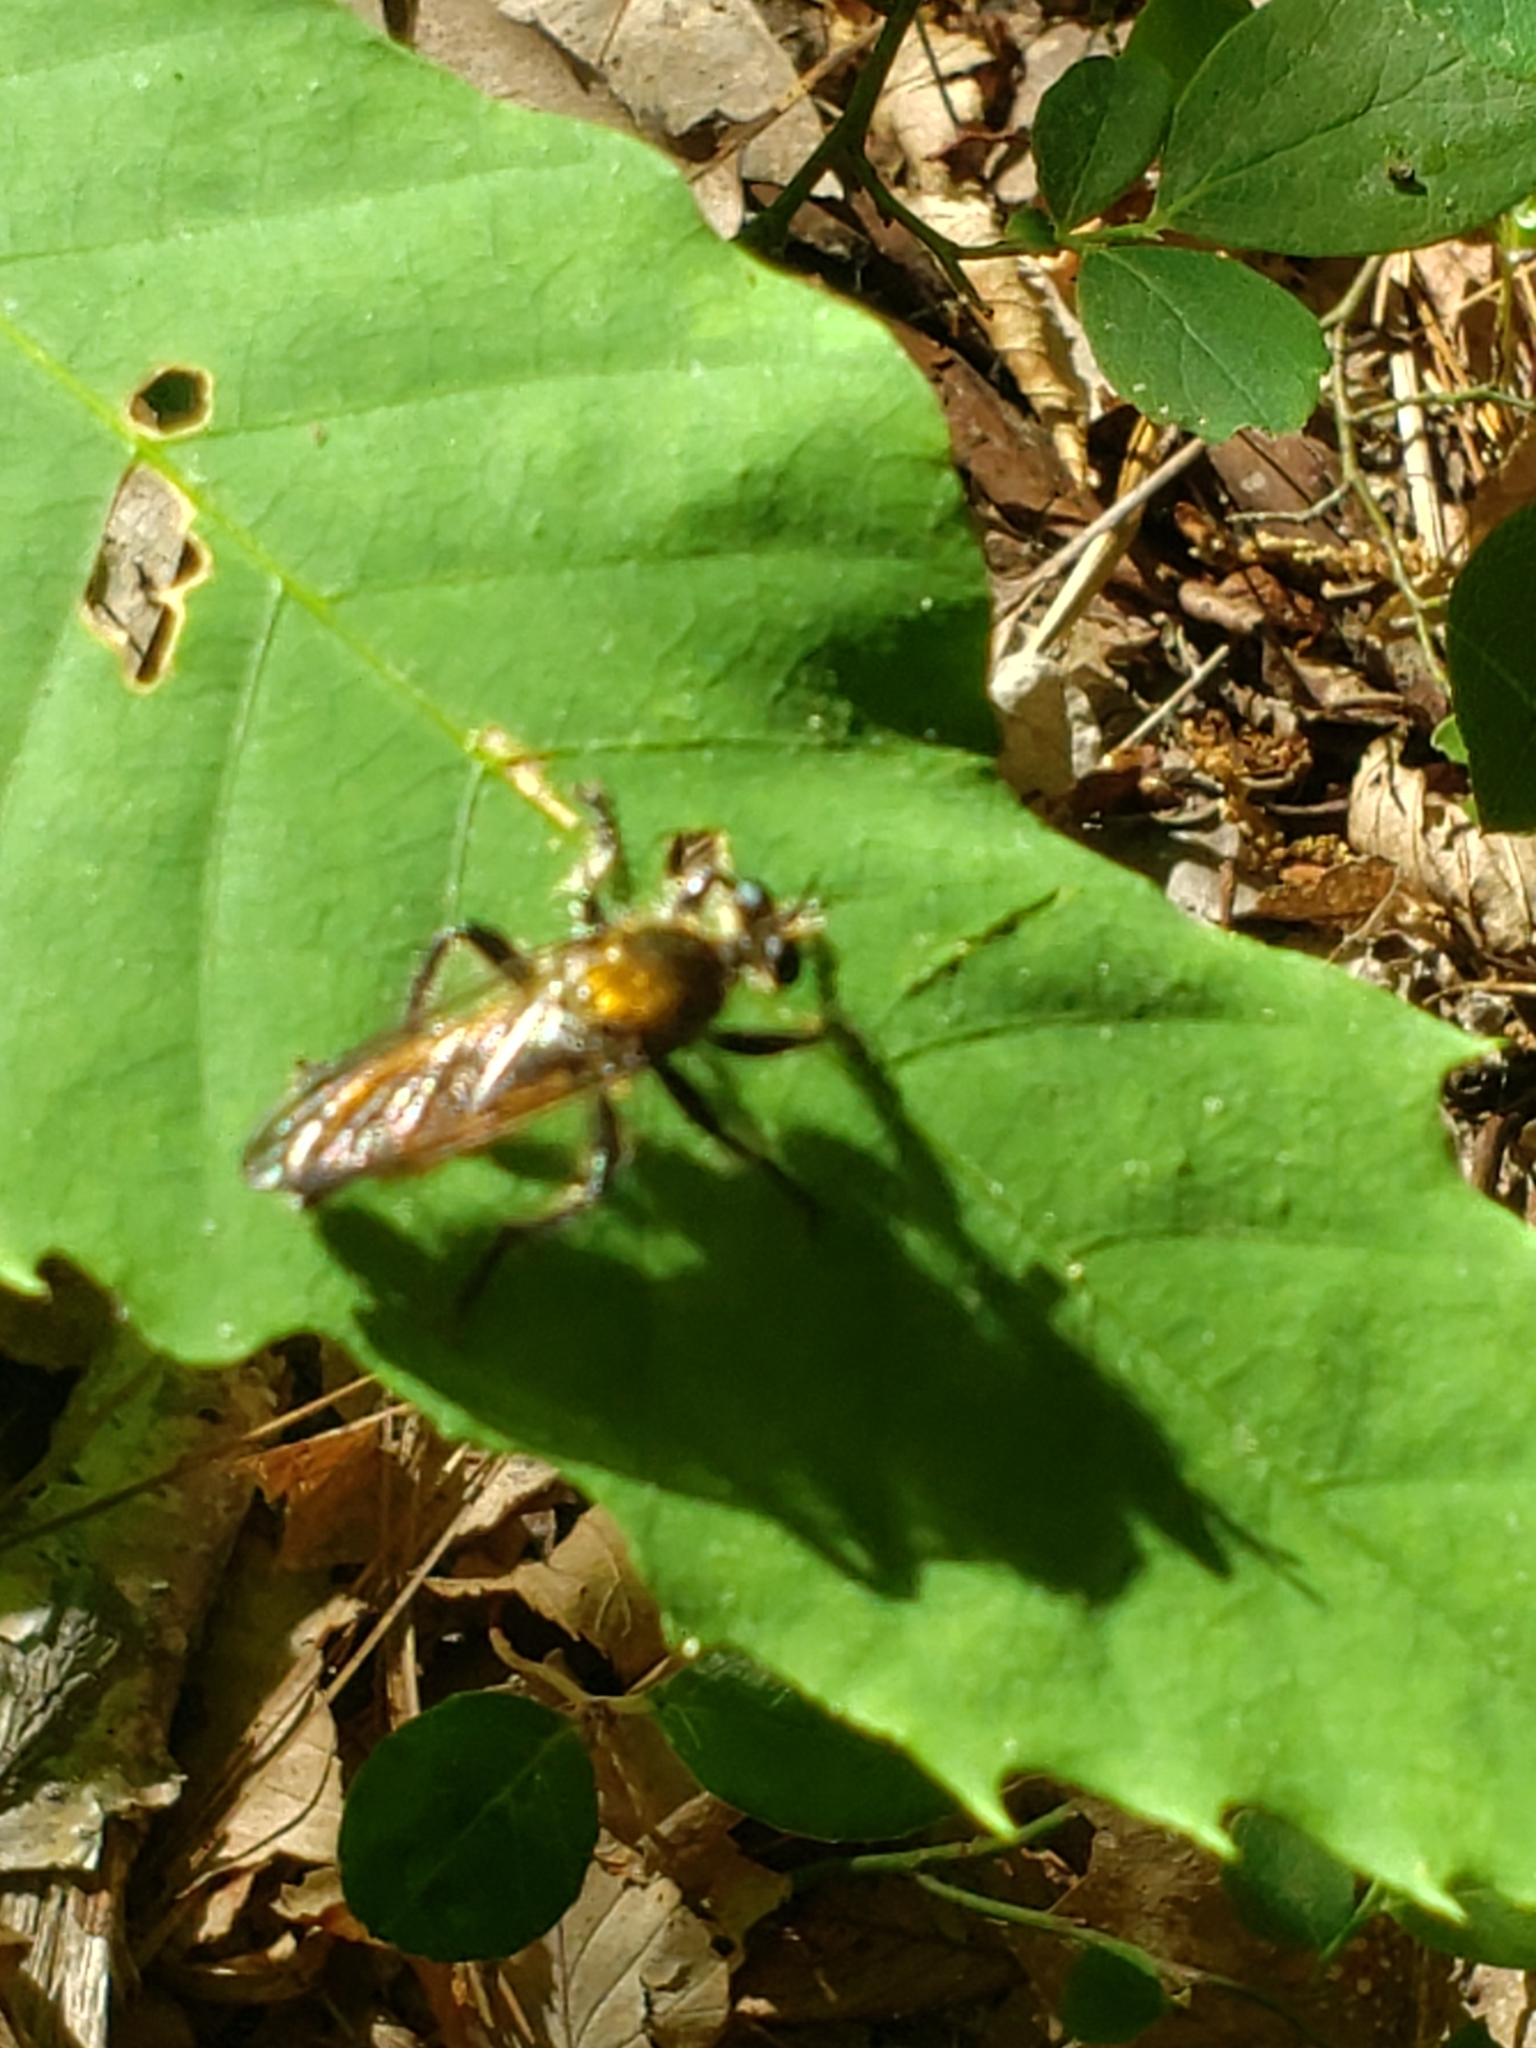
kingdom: Animalia
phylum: Arthropoda
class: Insecta
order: Diptera
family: Asilidae
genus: Laphria
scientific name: Laphria
